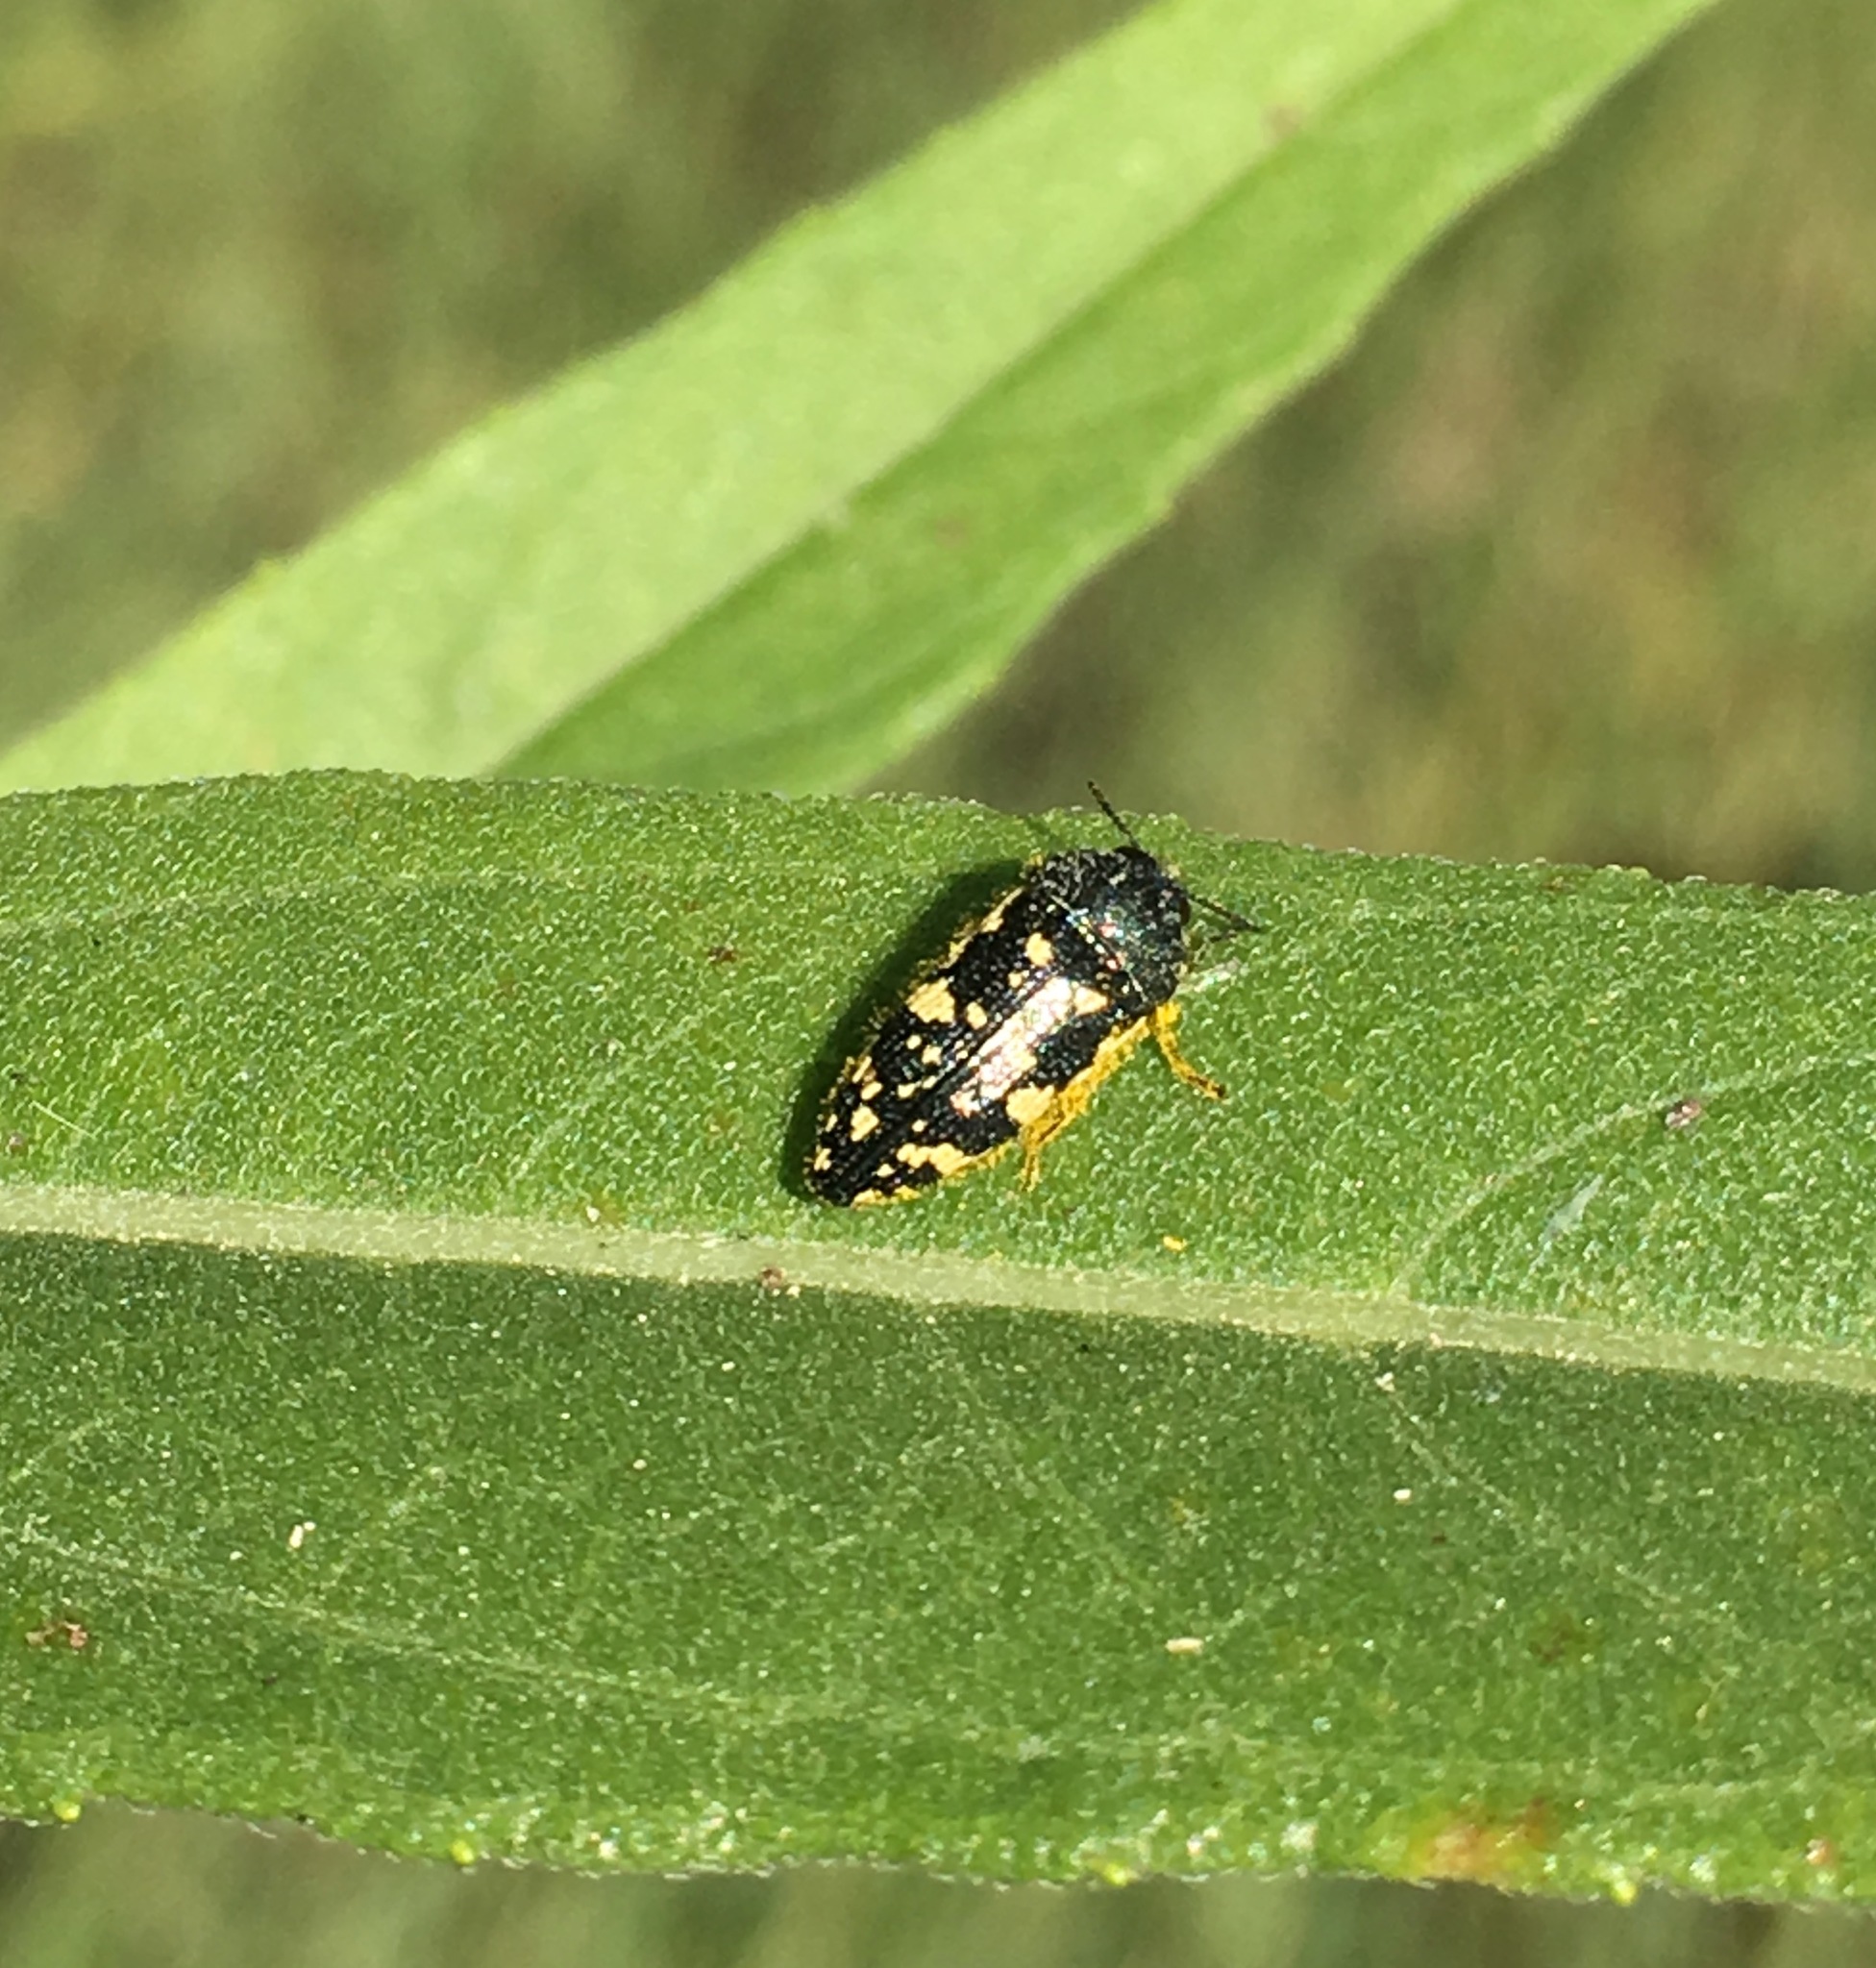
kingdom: Animalia
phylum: Arthropoda
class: Insecta
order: Coleoptera
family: Buprestidae
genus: Acmaeodera
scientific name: Acmaeodera flavopicta
